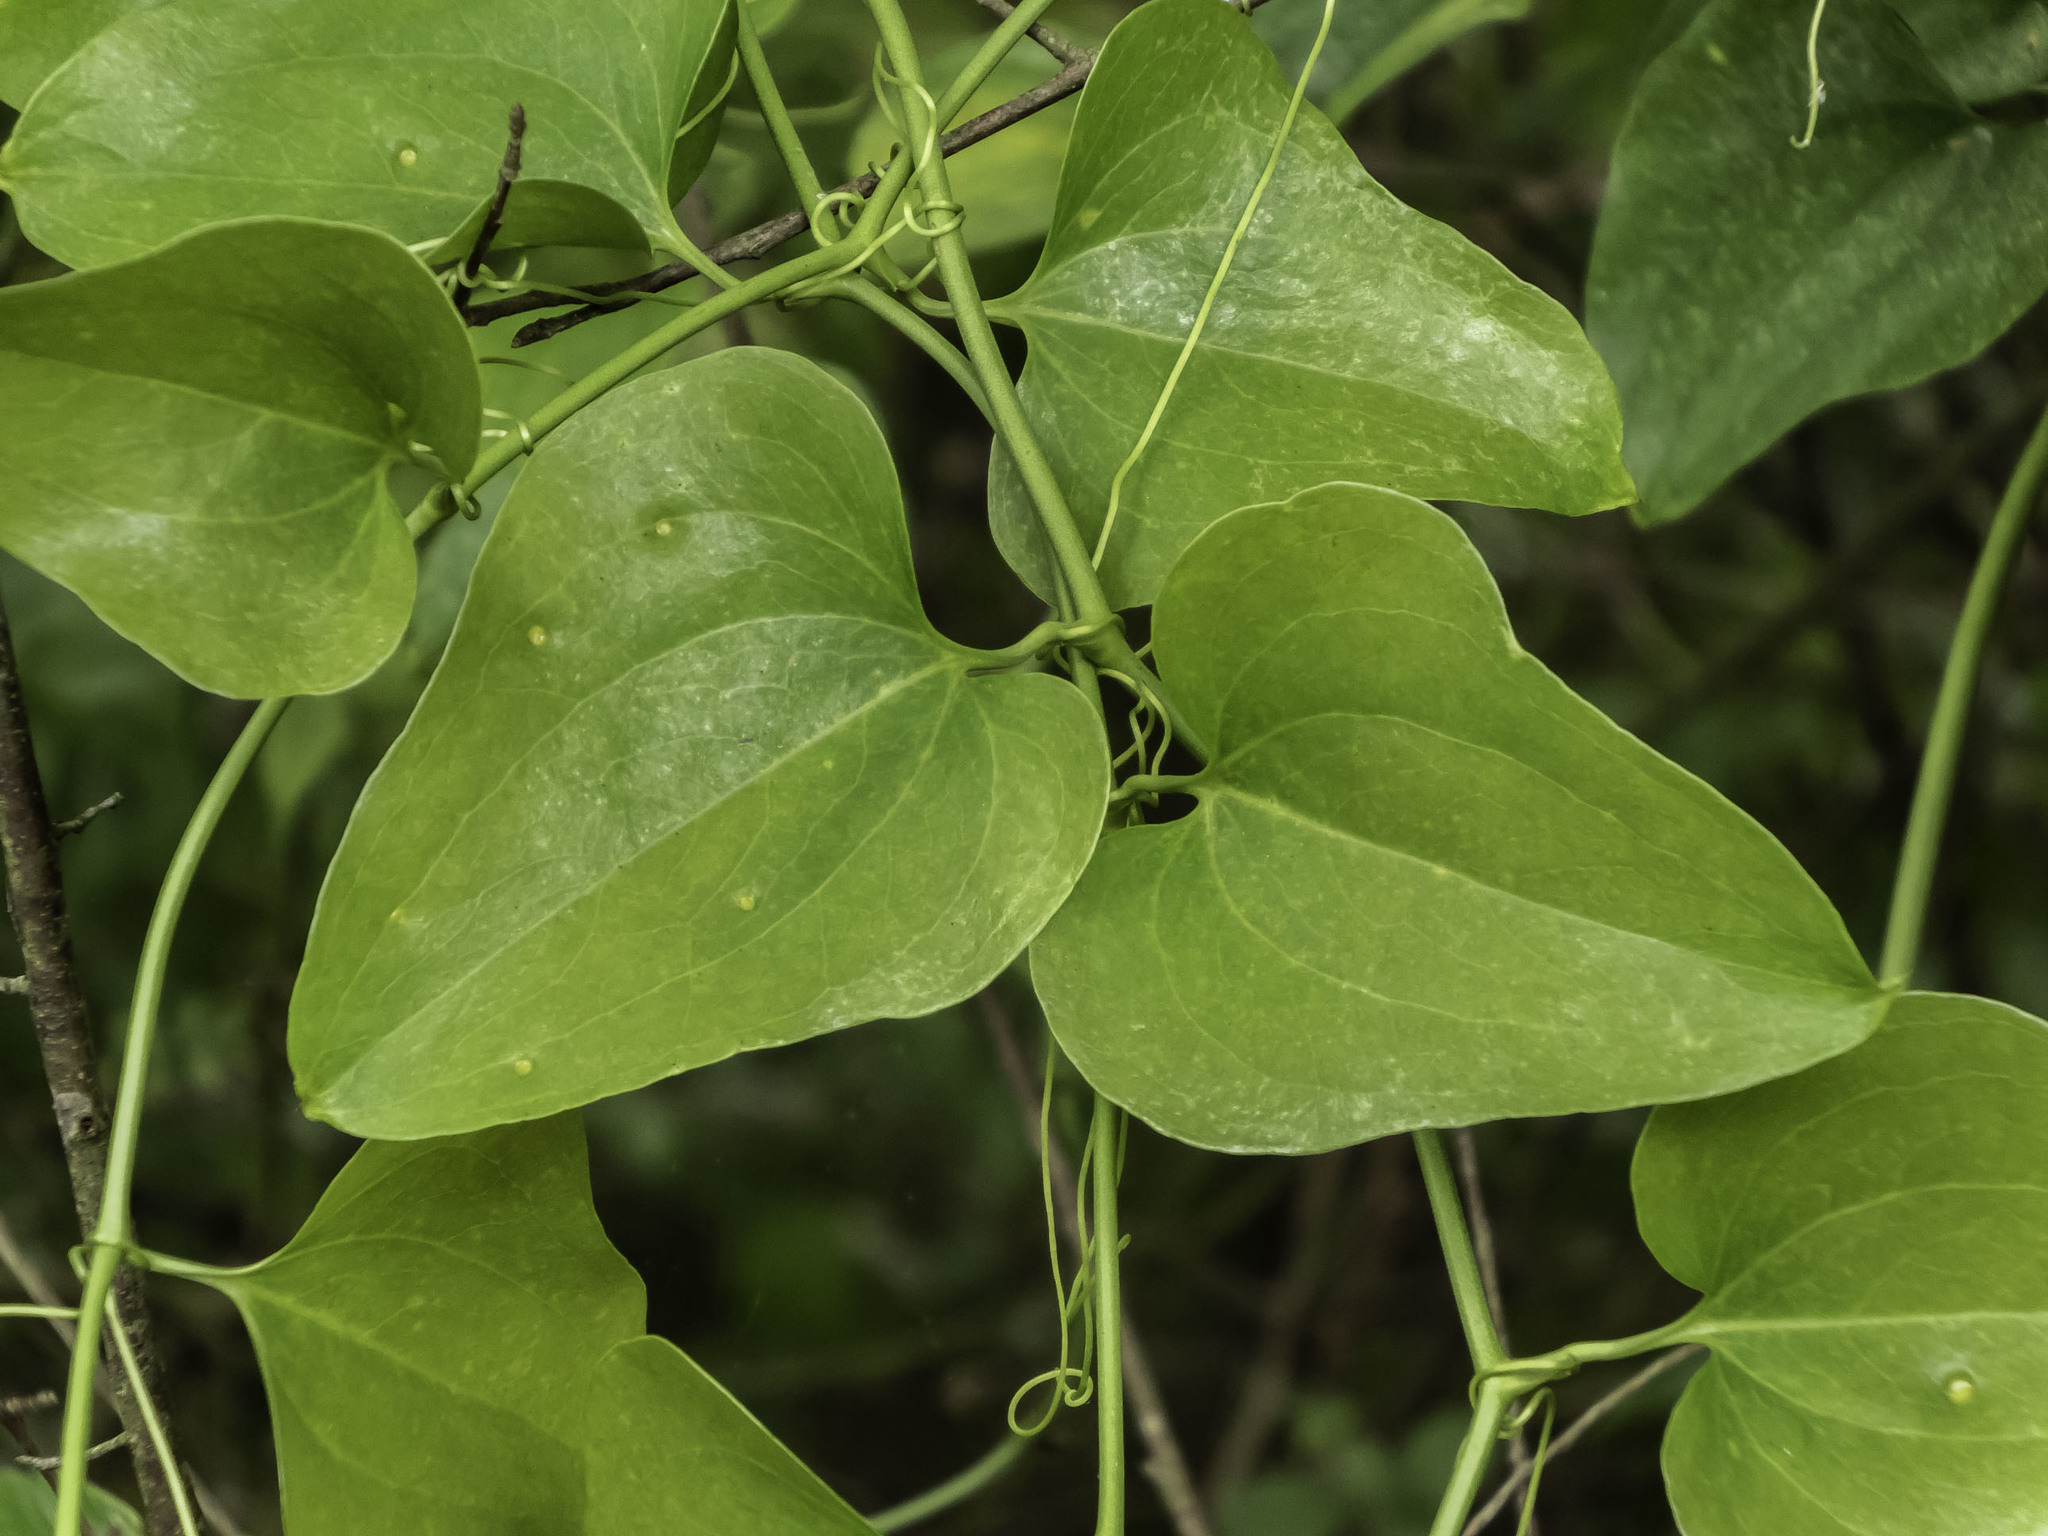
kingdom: Plantae
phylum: Tracheophyta
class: Liliopsida
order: Liliales
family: Smilacaceae
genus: Smilax
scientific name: Smilax bona-nox
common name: Catbrier
